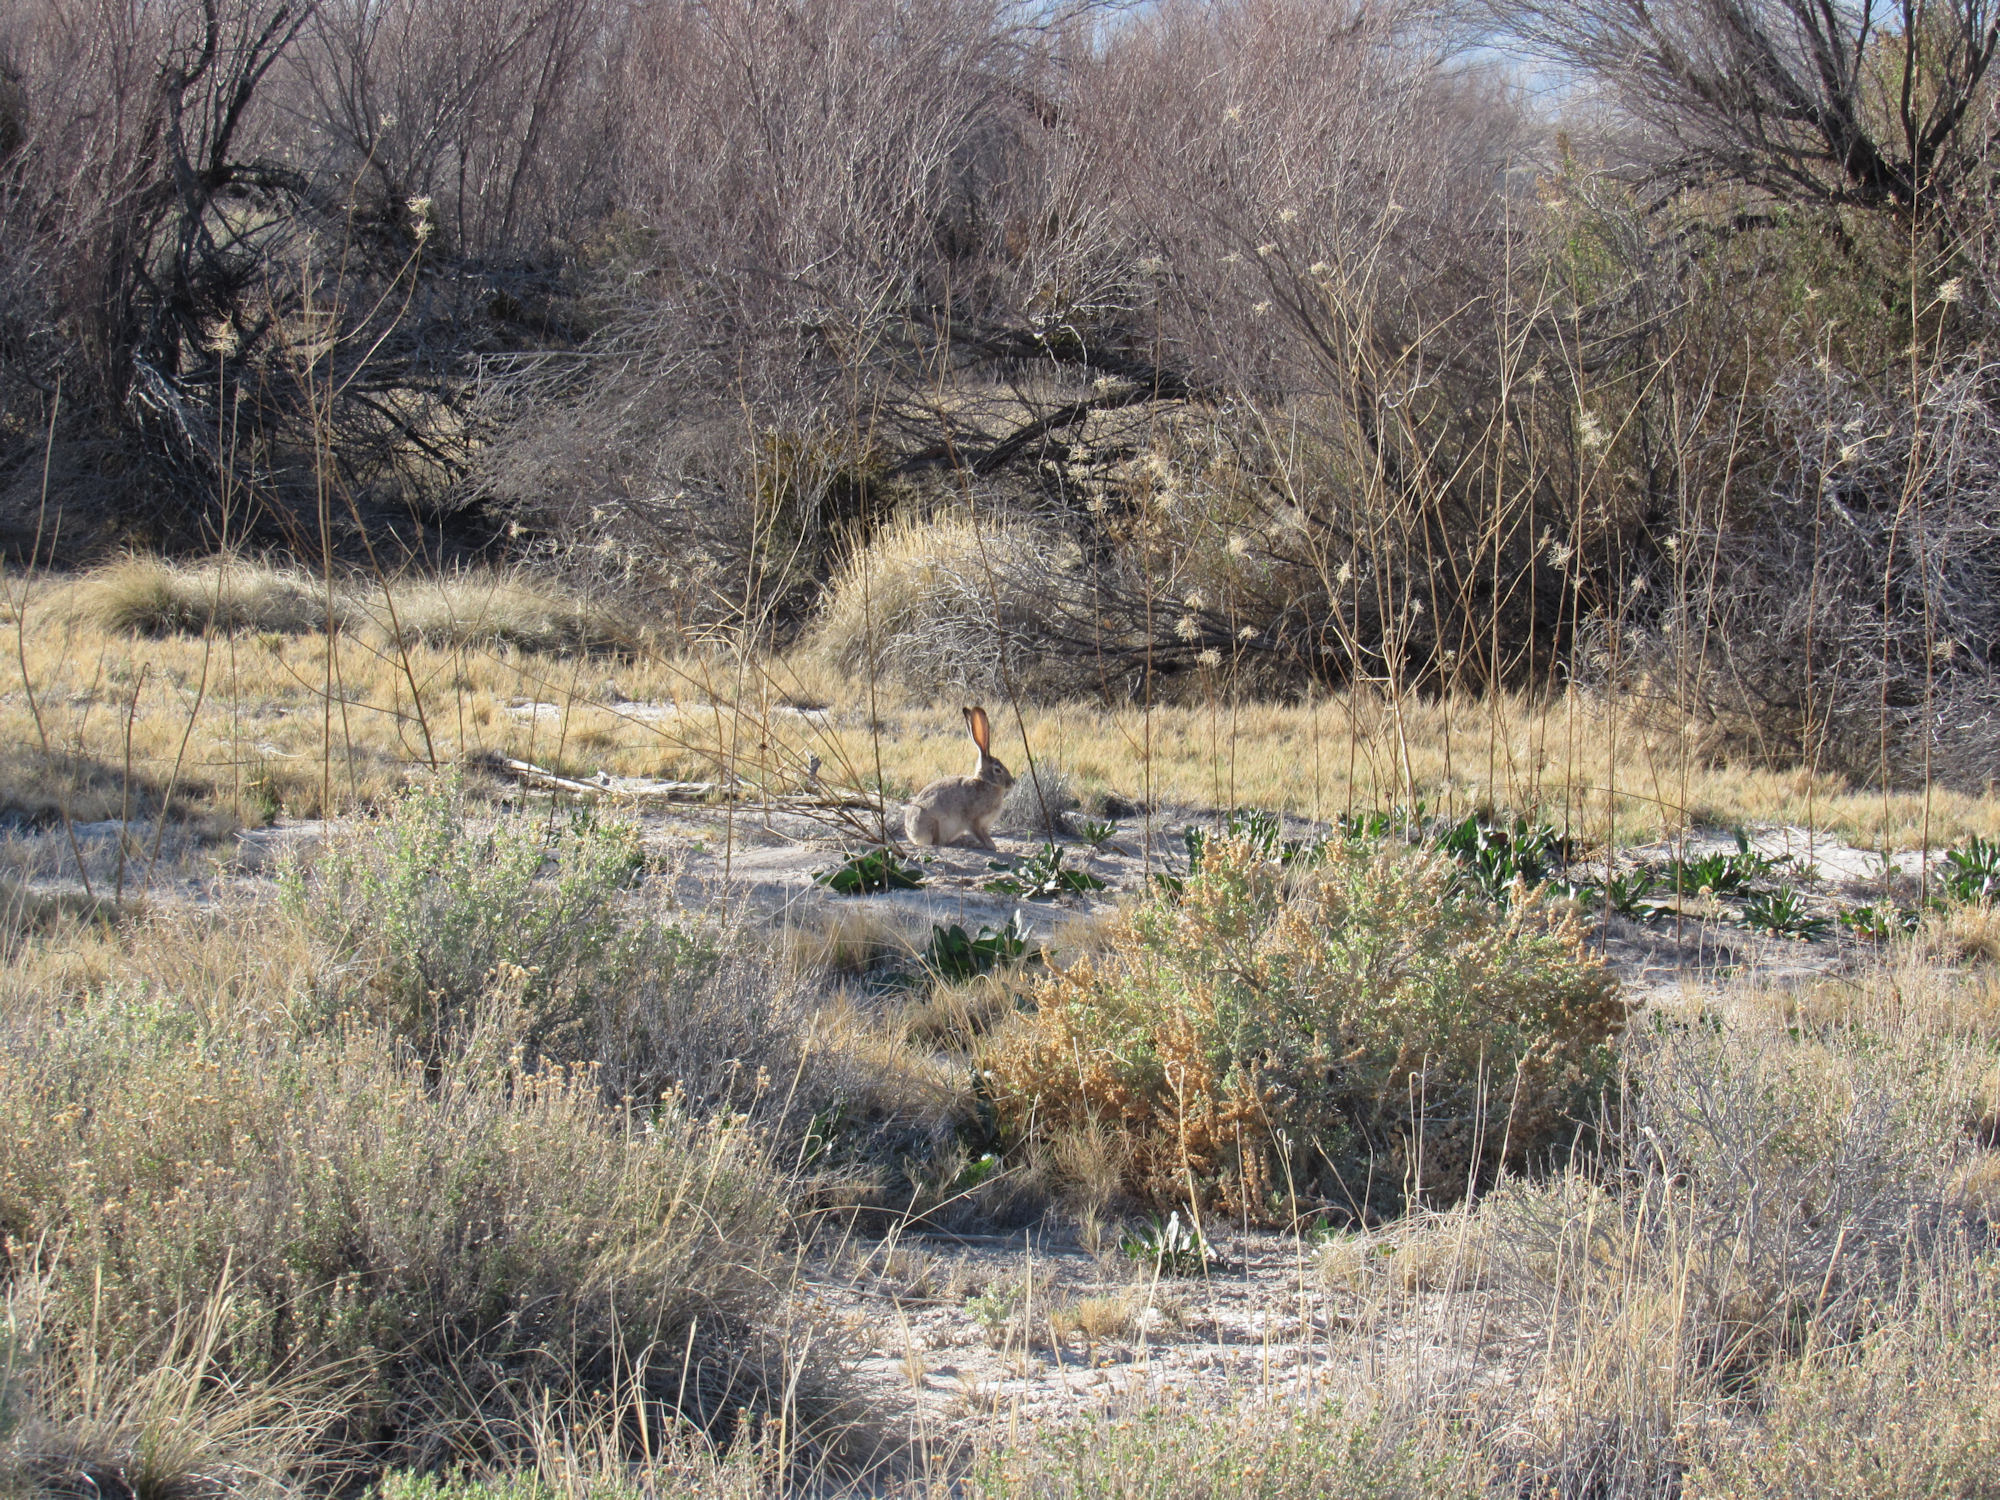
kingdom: Animalia
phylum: Chordata
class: Mammalia
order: Lagomorpha
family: Leporidae
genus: Lepus
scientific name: Lepus californicus
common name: Black-tailed jackrabbit
